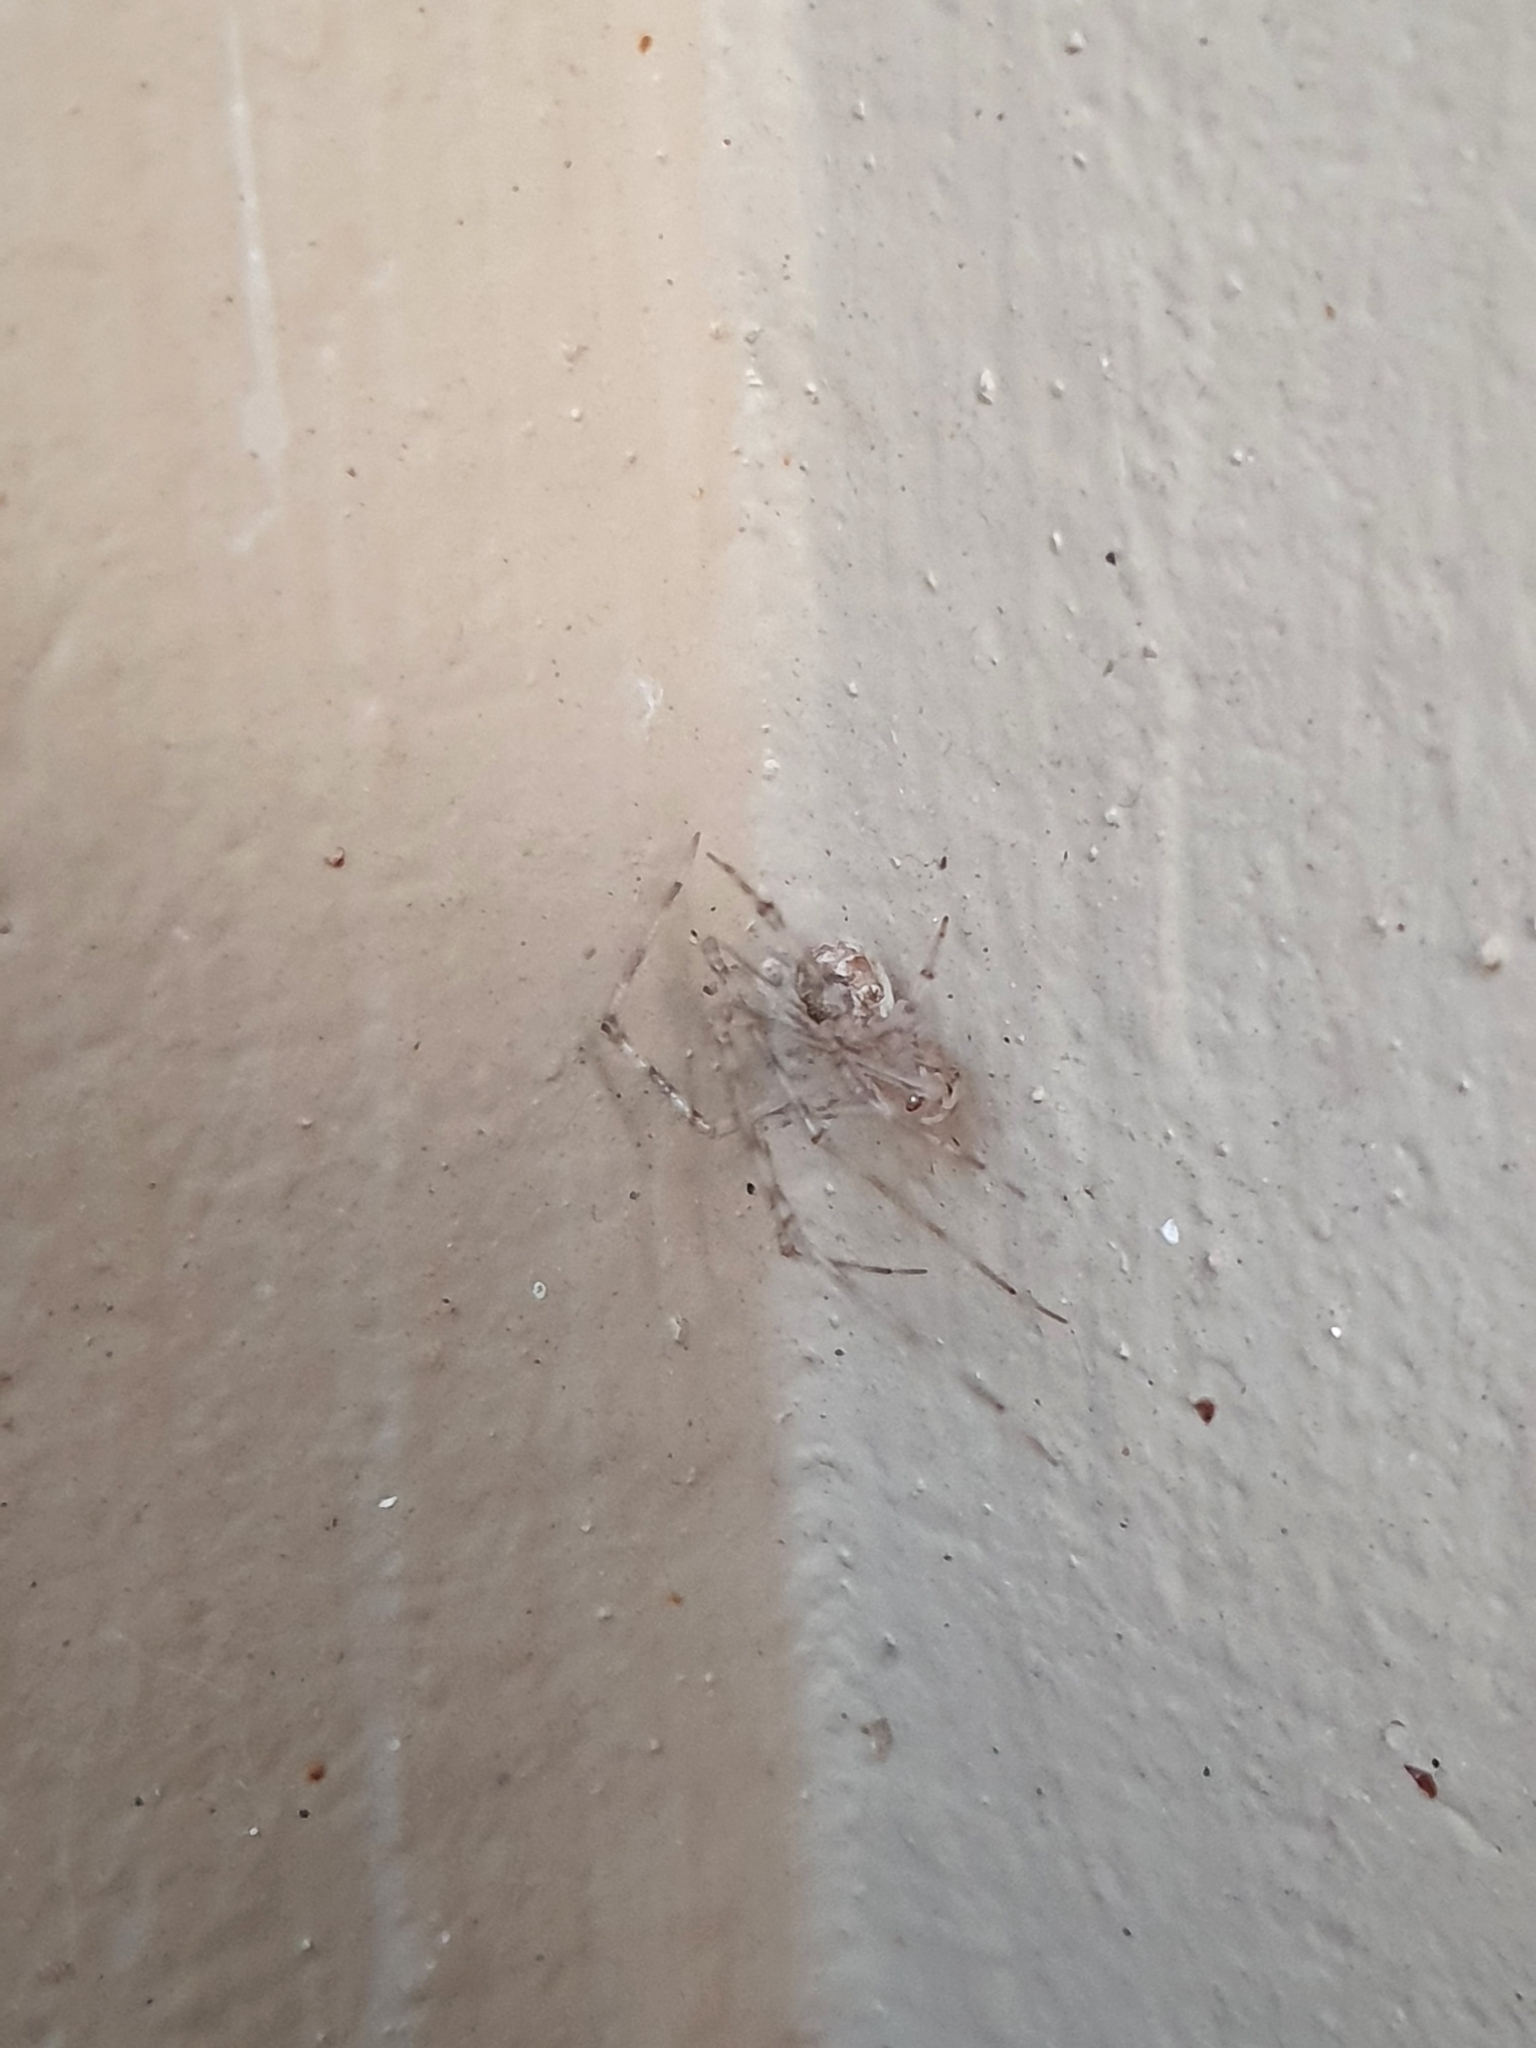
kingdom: Animalia
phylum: Arthropoda
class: Arachnida
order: Araneae
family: Theridiidae
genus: Cryptachaea
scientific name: Cryptachaea gigantipes
